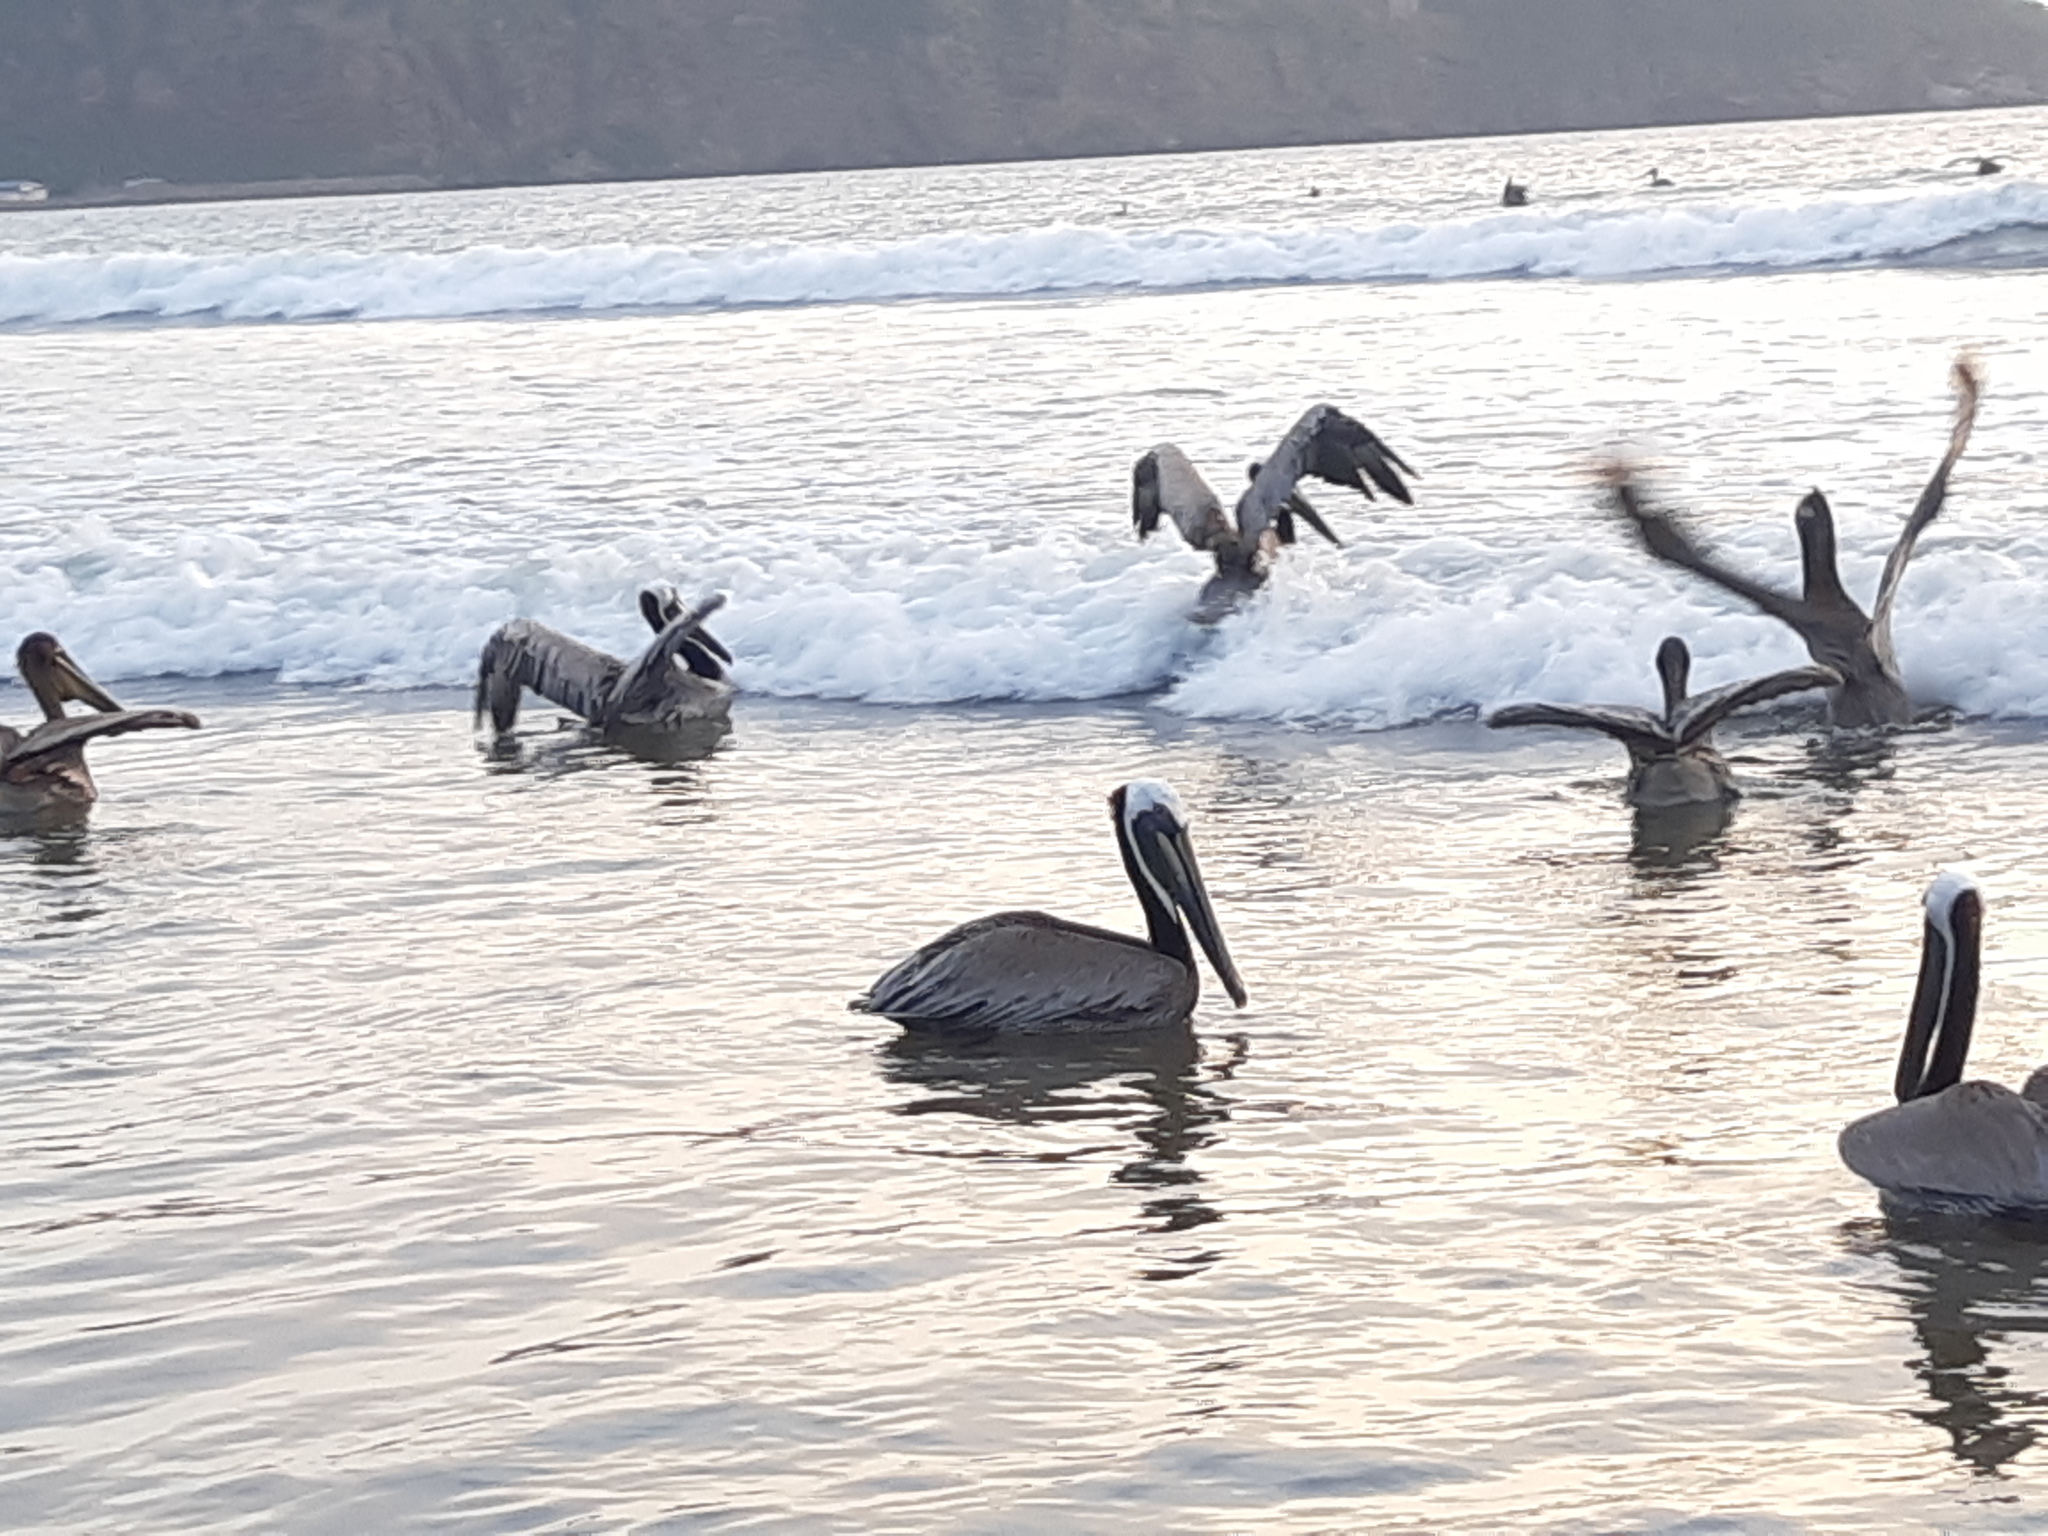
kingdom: Animalia
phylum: Chordata
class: Aves
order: Pelecaniformes
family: Pelecanidae
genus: Pelecanus
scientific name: Pelecanus occidentalis
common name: Brown pelican
